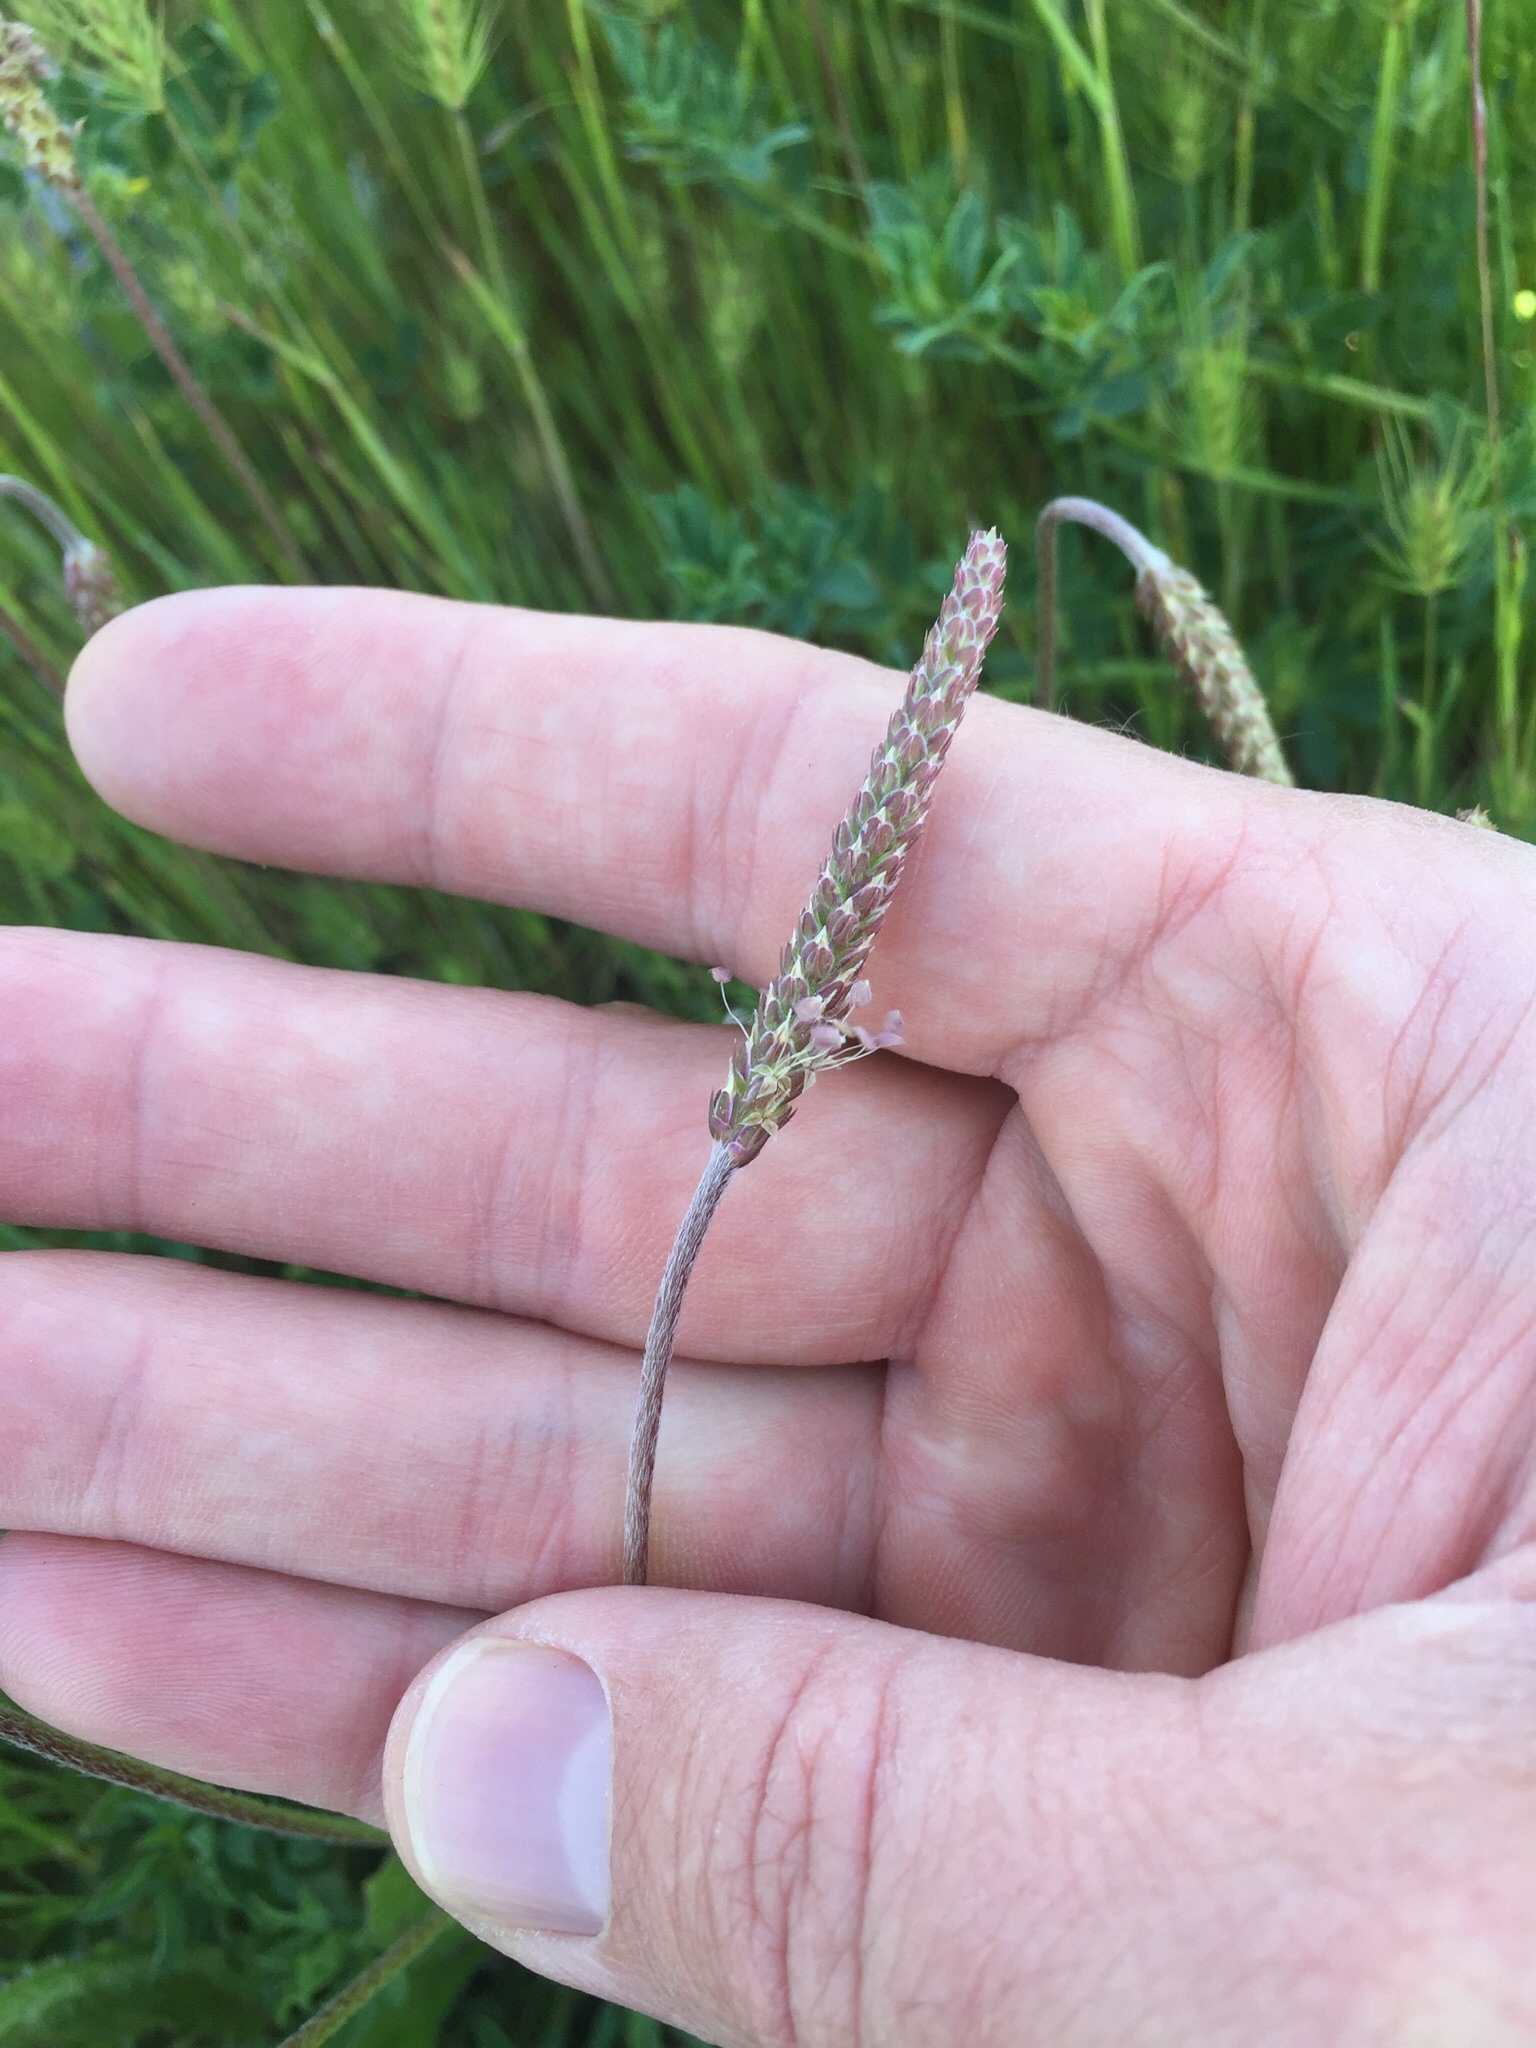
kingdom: Plantae
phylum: Tracheophyta
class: Magnoliopsida
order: Lamiales
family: Plantaginaceae
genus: Plantago
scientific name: Plantago coronopus
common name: Buck's-horn plantain
